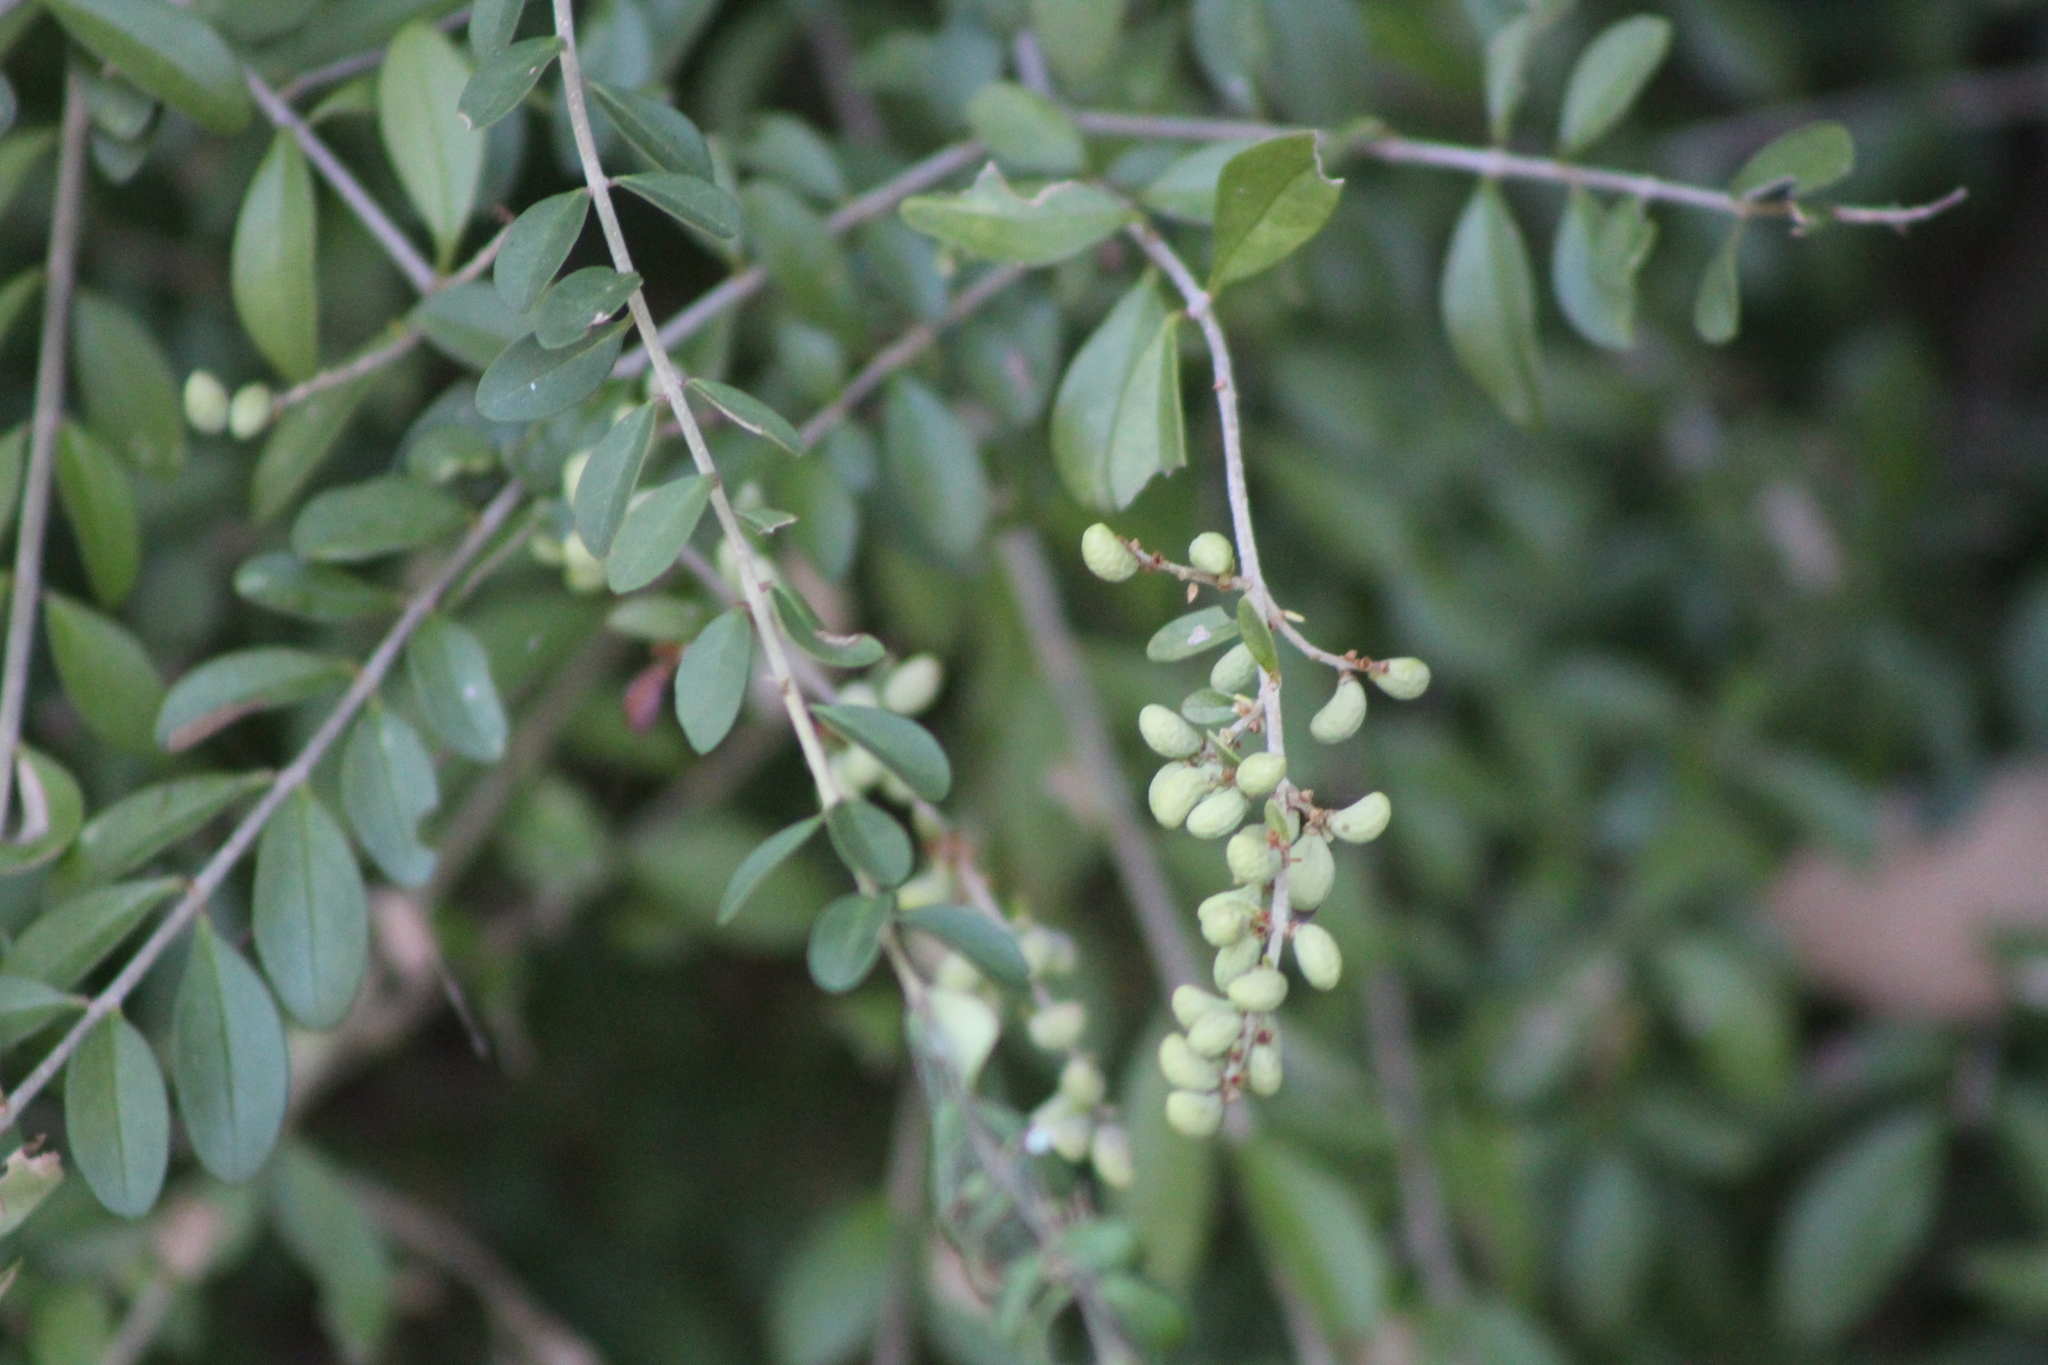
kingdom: Plantae
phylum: Tracheophyta
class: Magnoliopsida
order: Lamiales
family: Oleaceae
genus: Ligustrum
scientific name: Ligustrum quihoui
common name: Waxyleaf privet
